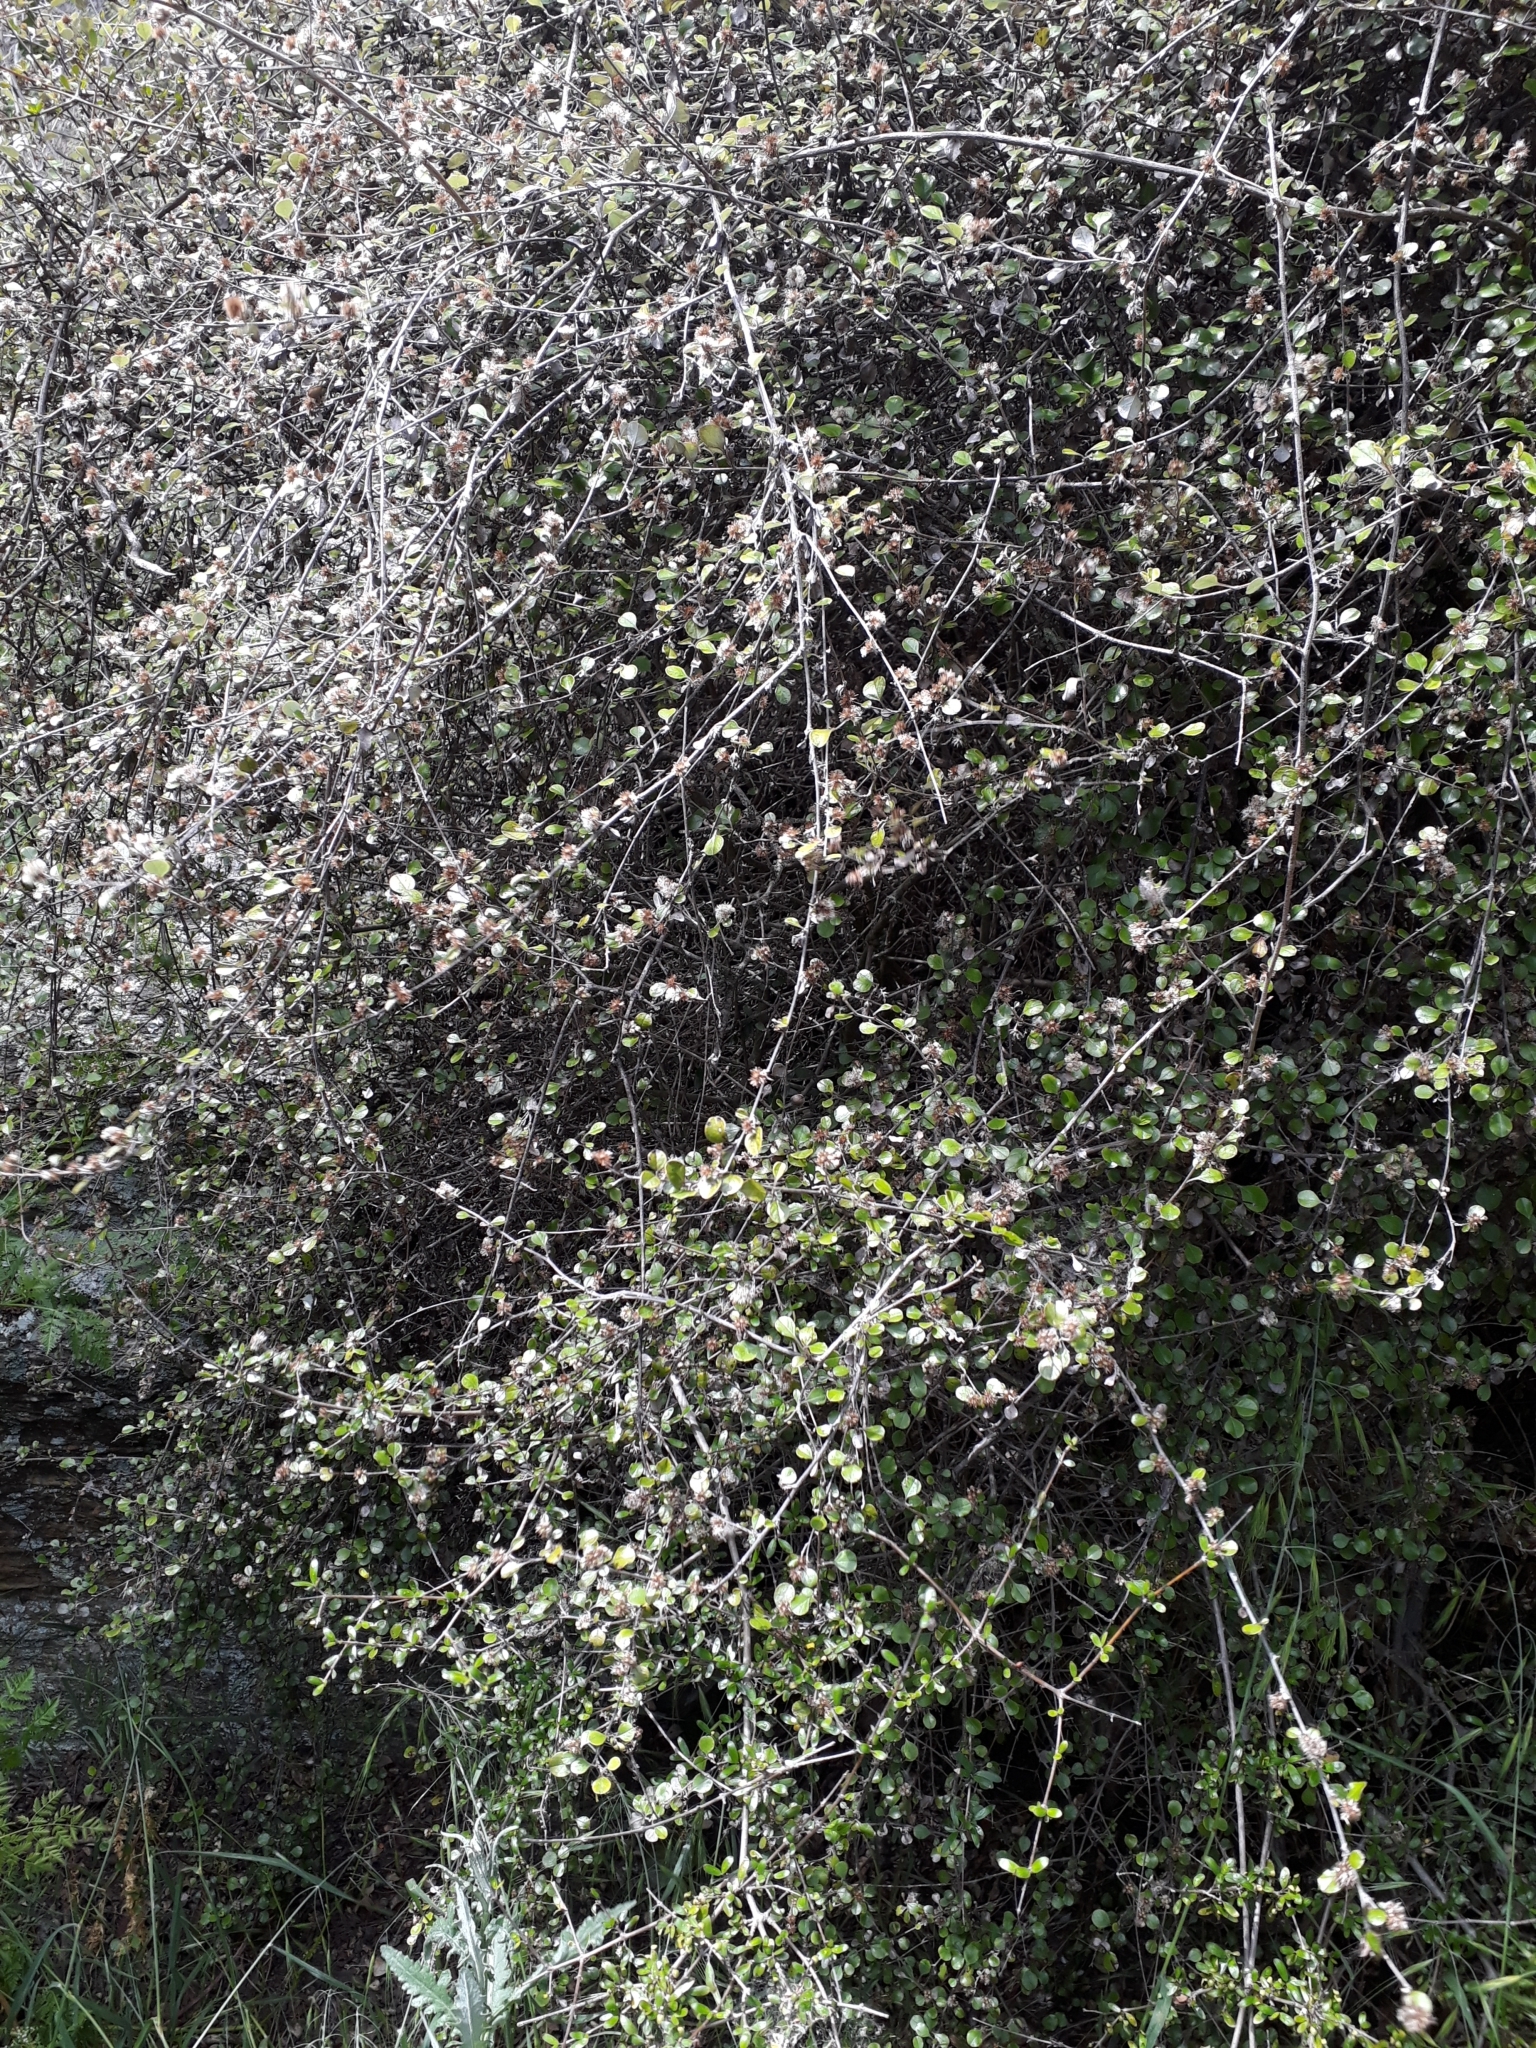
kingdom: Plantae
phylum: Tracheophyta
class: Magnoliopsida
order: Asterales
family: Asteraceae
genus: Ozothamnus
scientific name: Ozothamnus glomeratus
